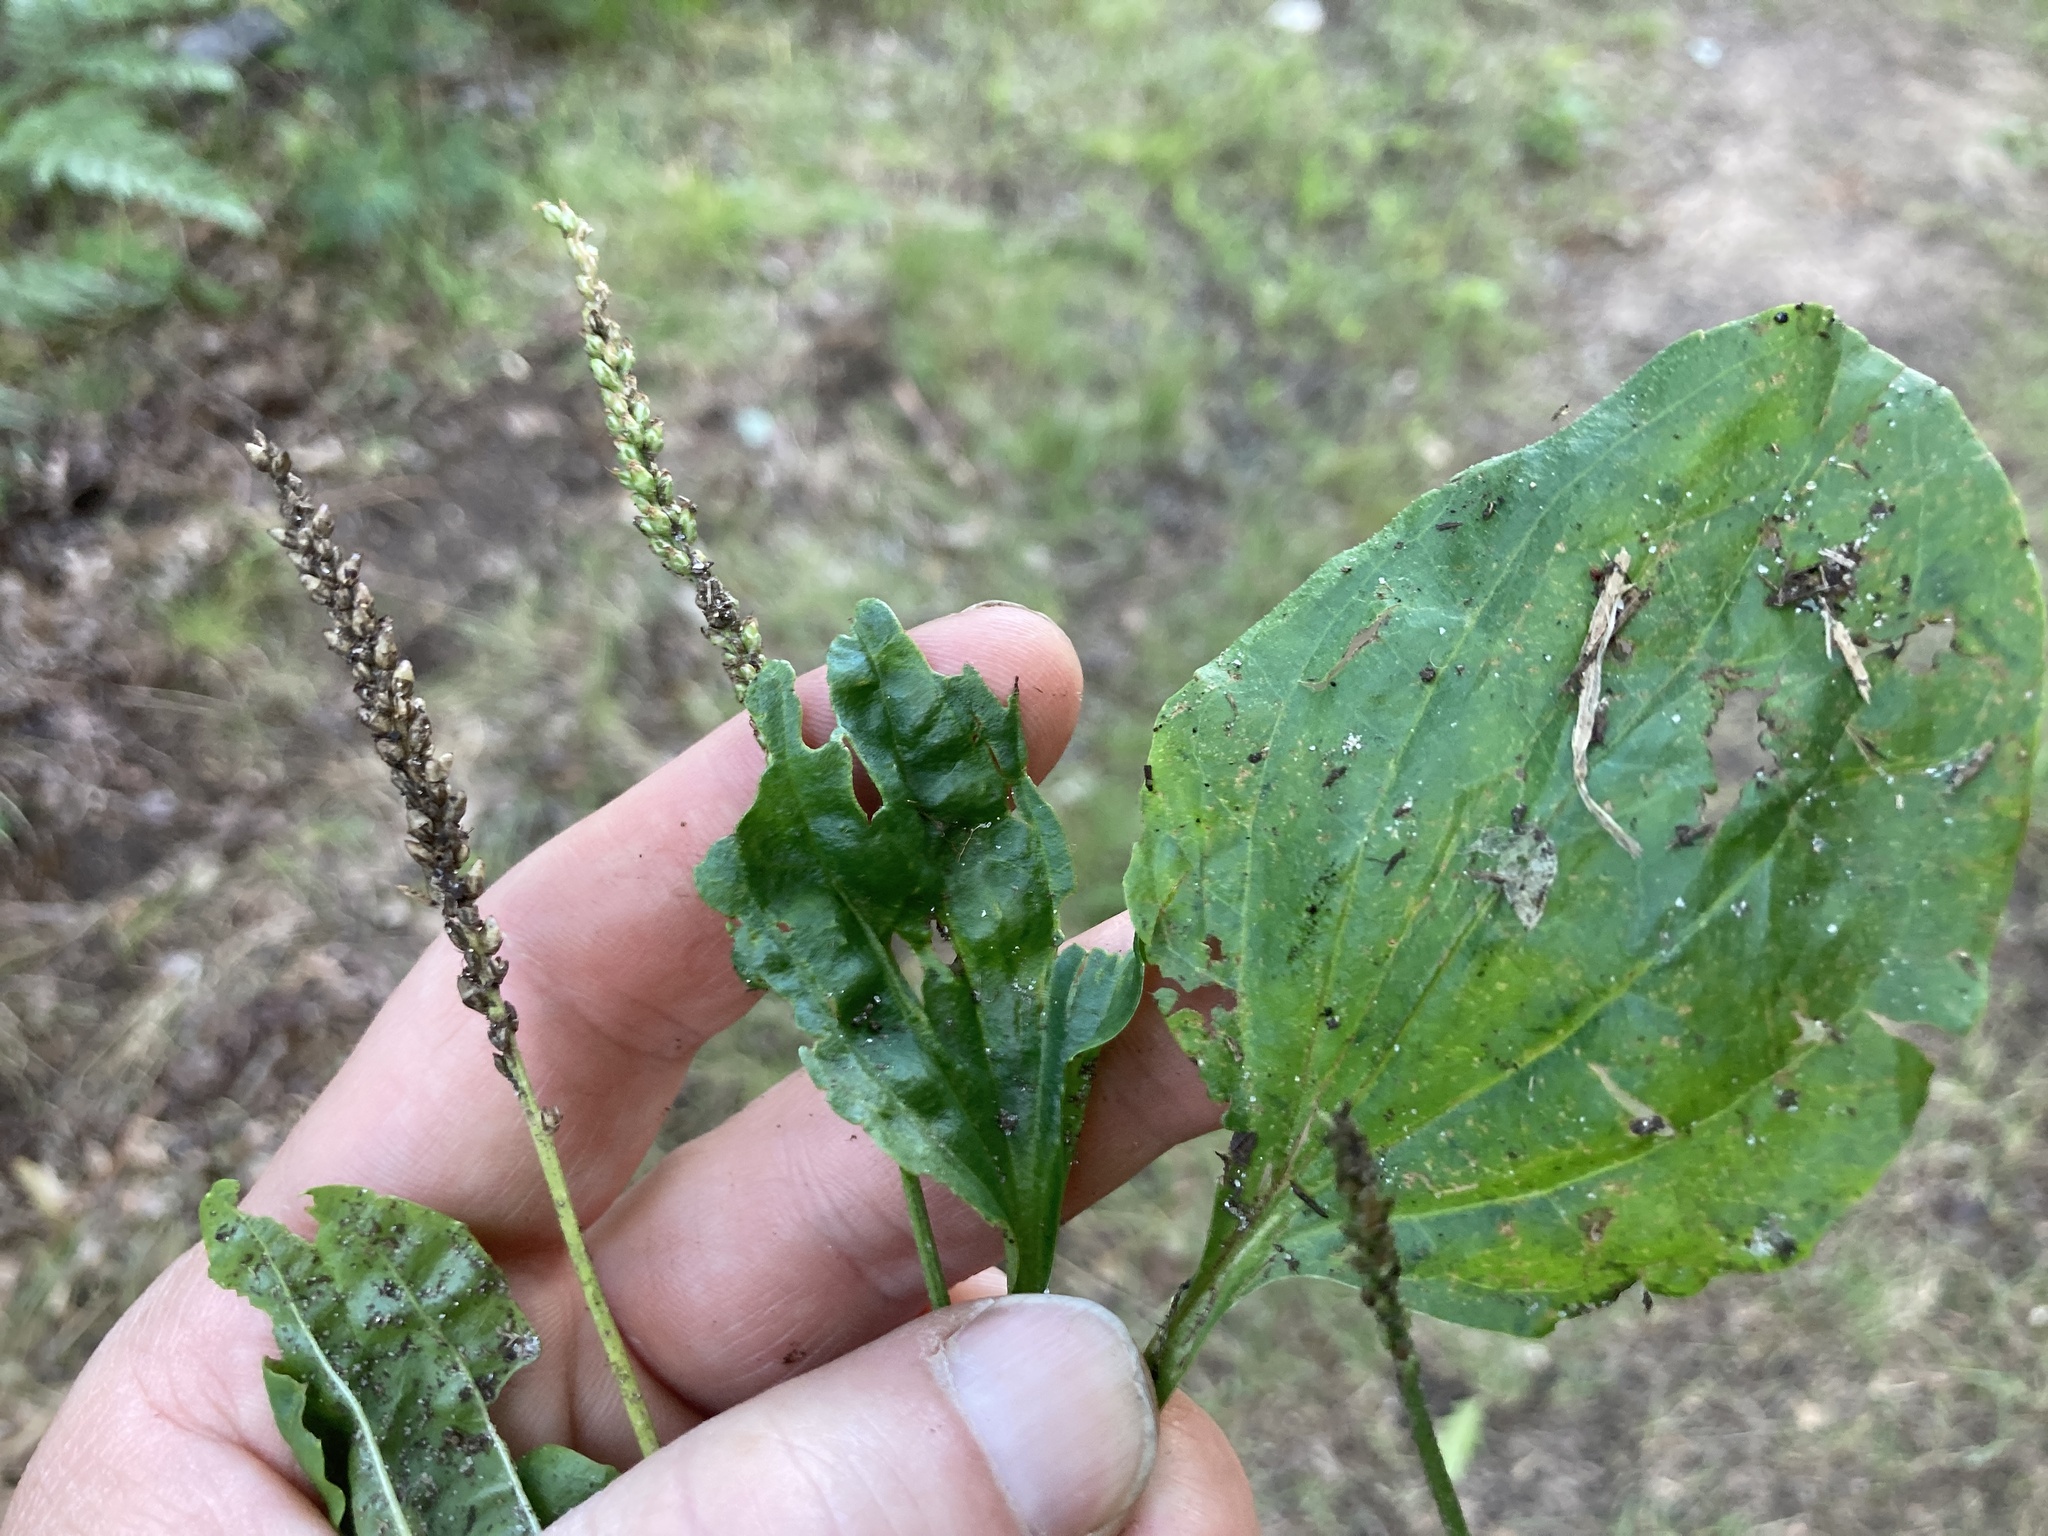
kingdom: Plantae
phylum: Tracheophyta
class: Magnoliopsida
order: Lamiales
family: Plantaginaceae
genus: Plantago
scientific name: Plantago major
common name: Common plantain
